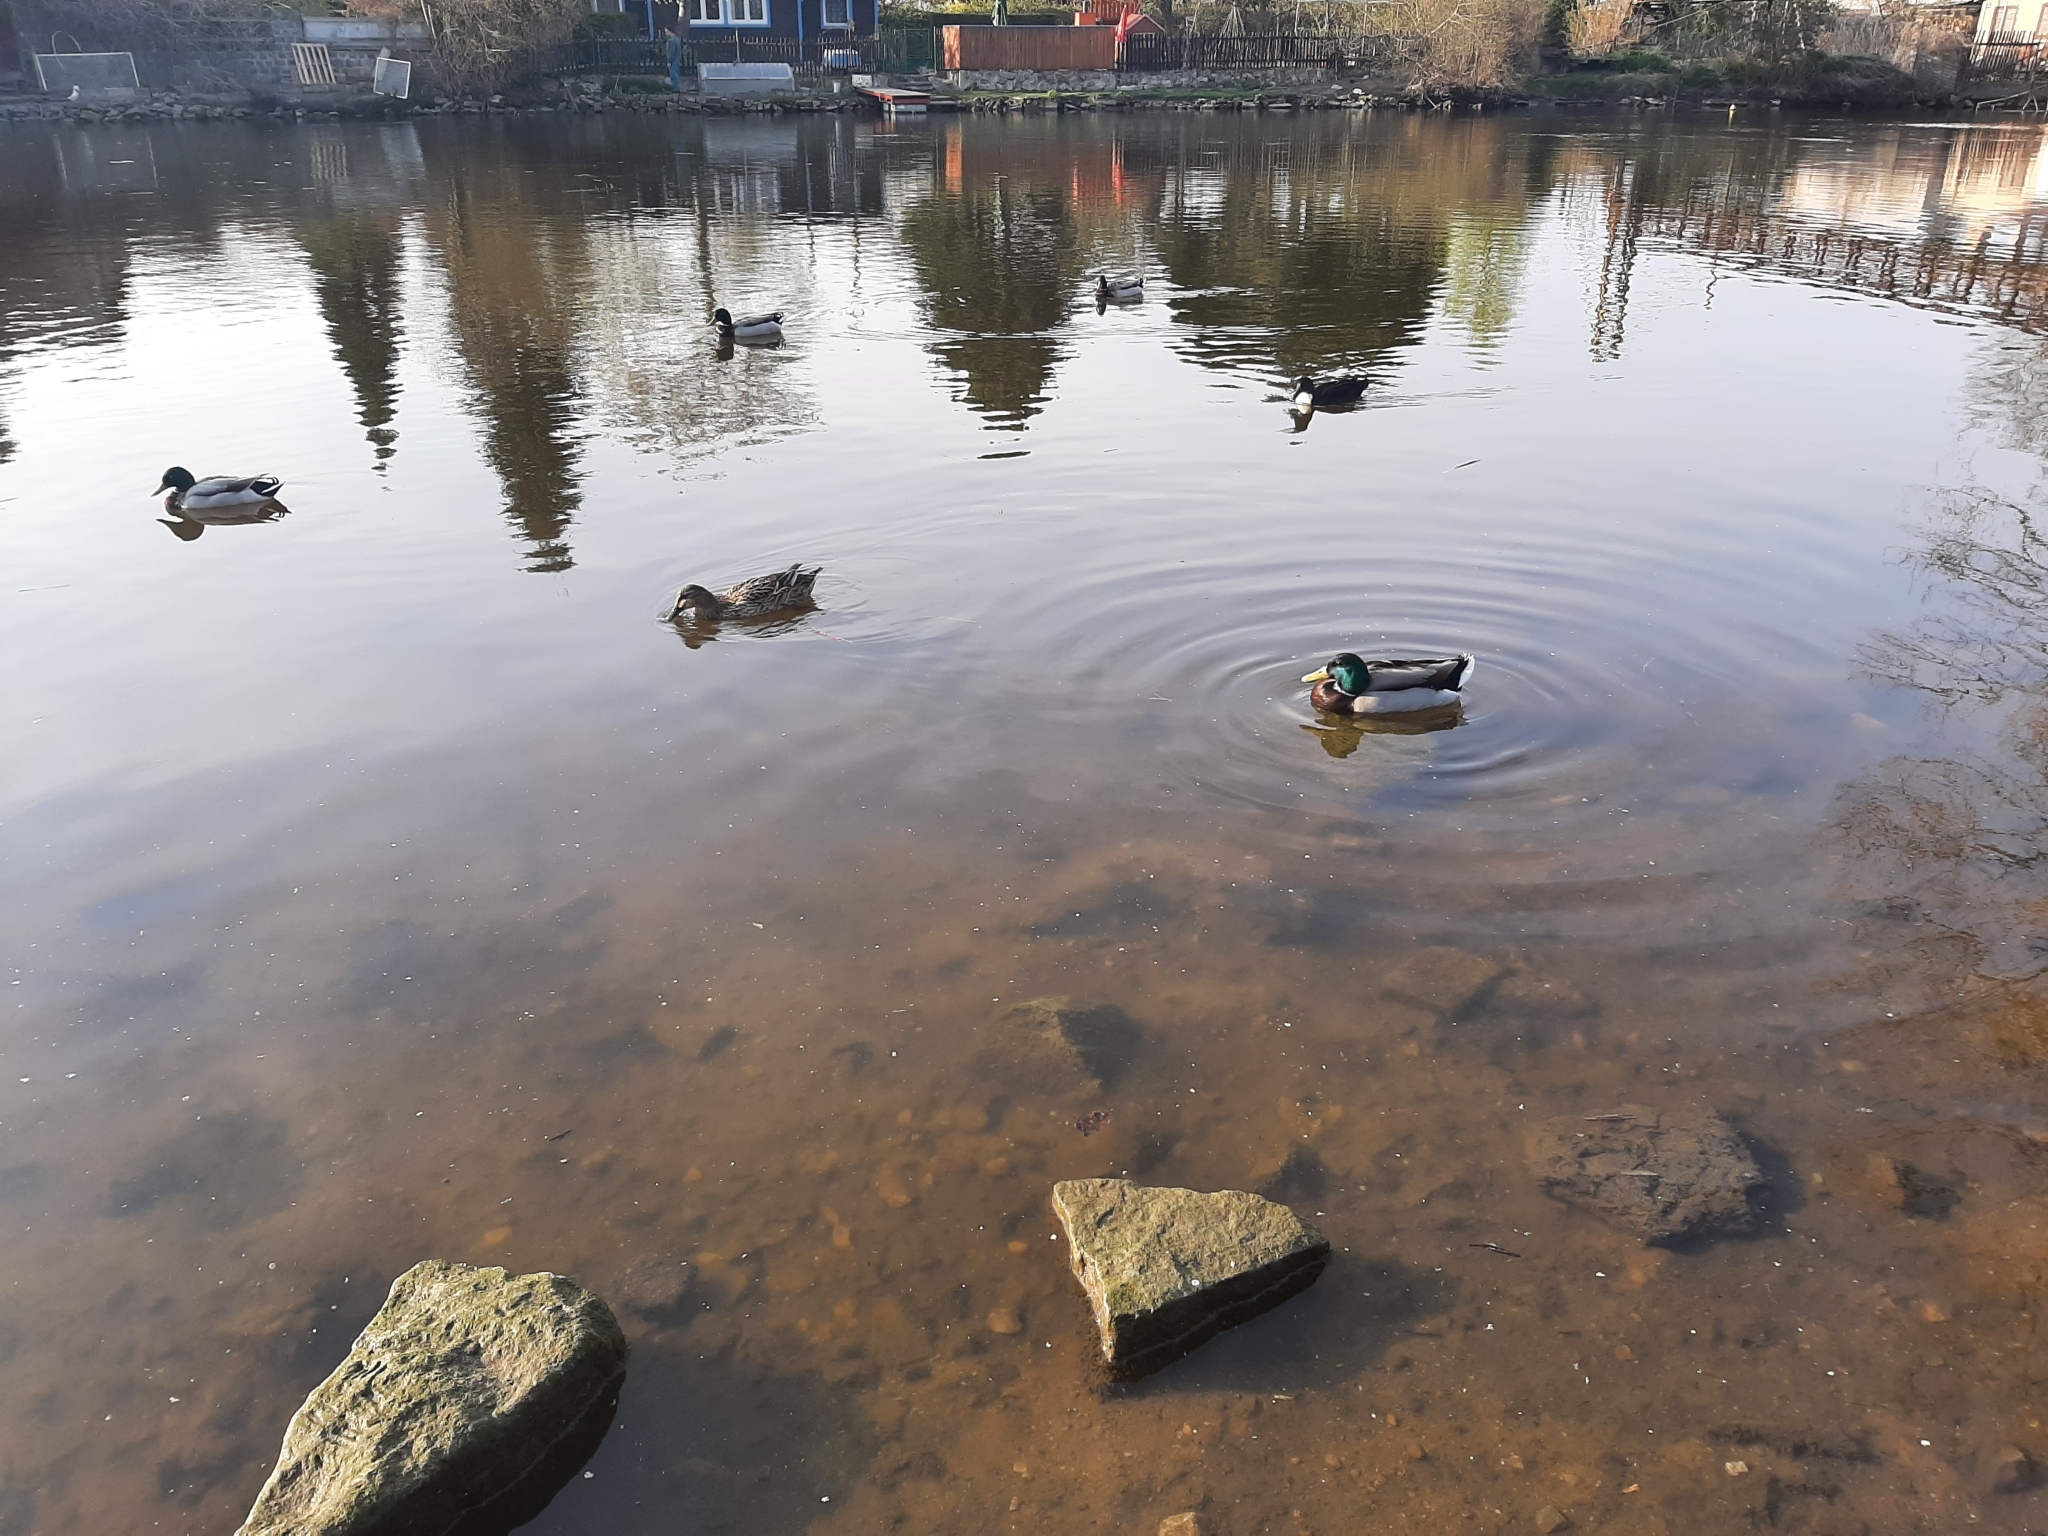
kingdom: Animalia
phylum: Chordata
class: Aves
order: Anseriformes
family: Anatidae
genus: Anas
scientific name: Anas platyrhynchos
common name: Mallard
